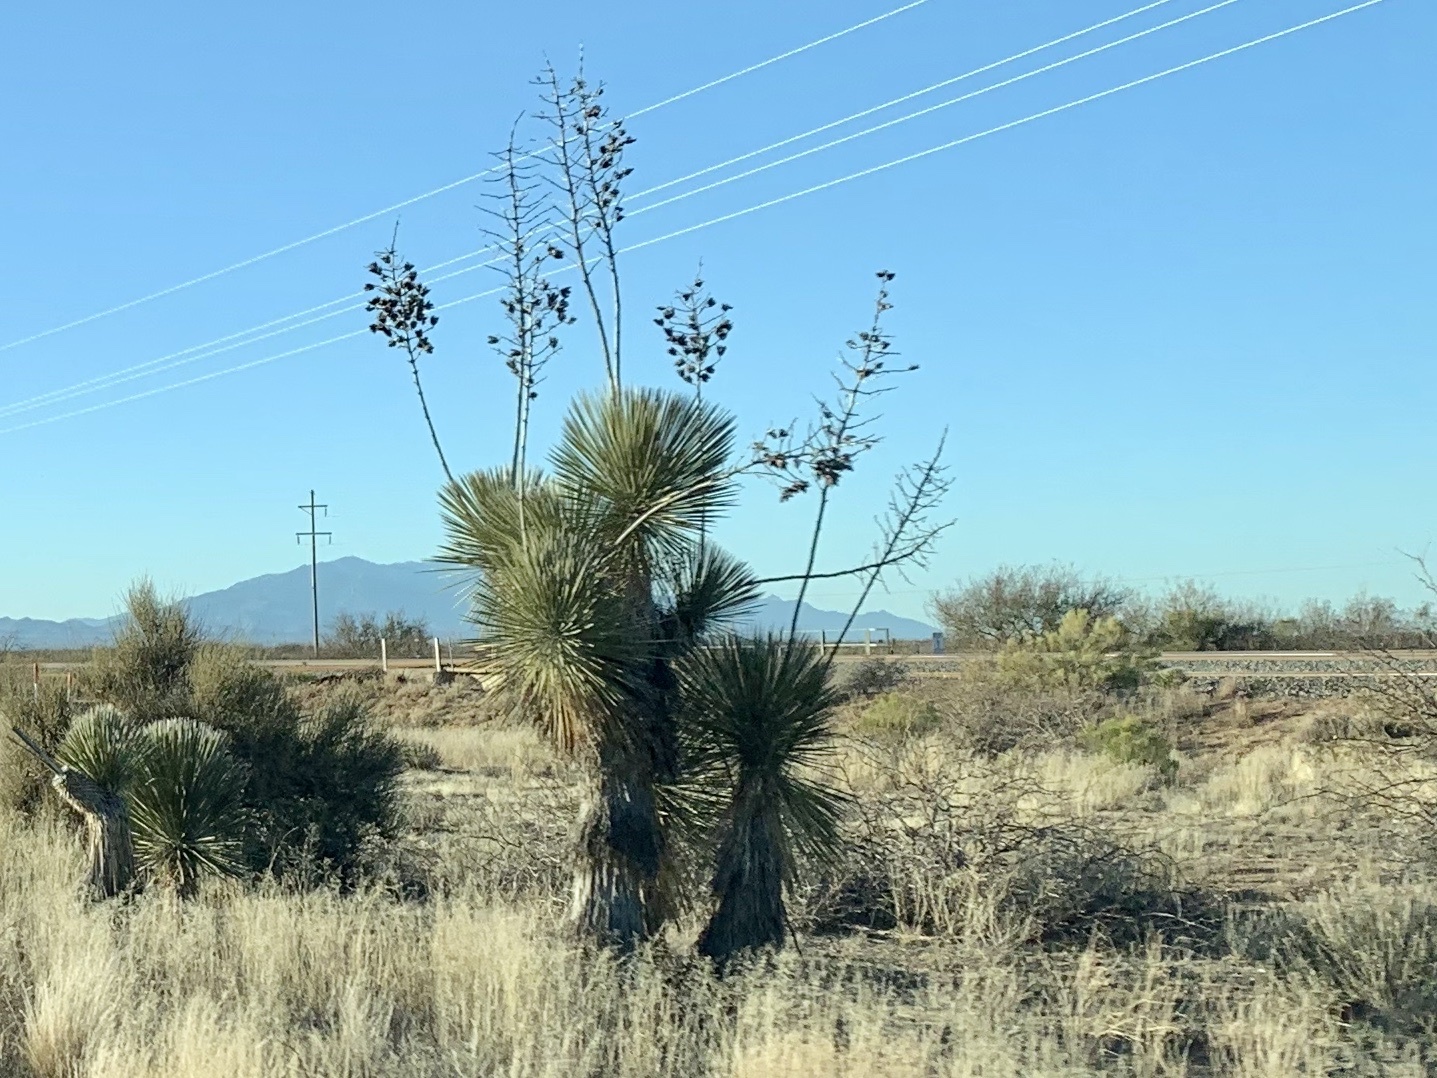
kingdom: Plantae
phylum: Tracheophyta
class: Liliopsida
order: Asparagales
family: Asparagaceae
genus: Yucca
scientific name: Yucca elata
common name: Palmella
